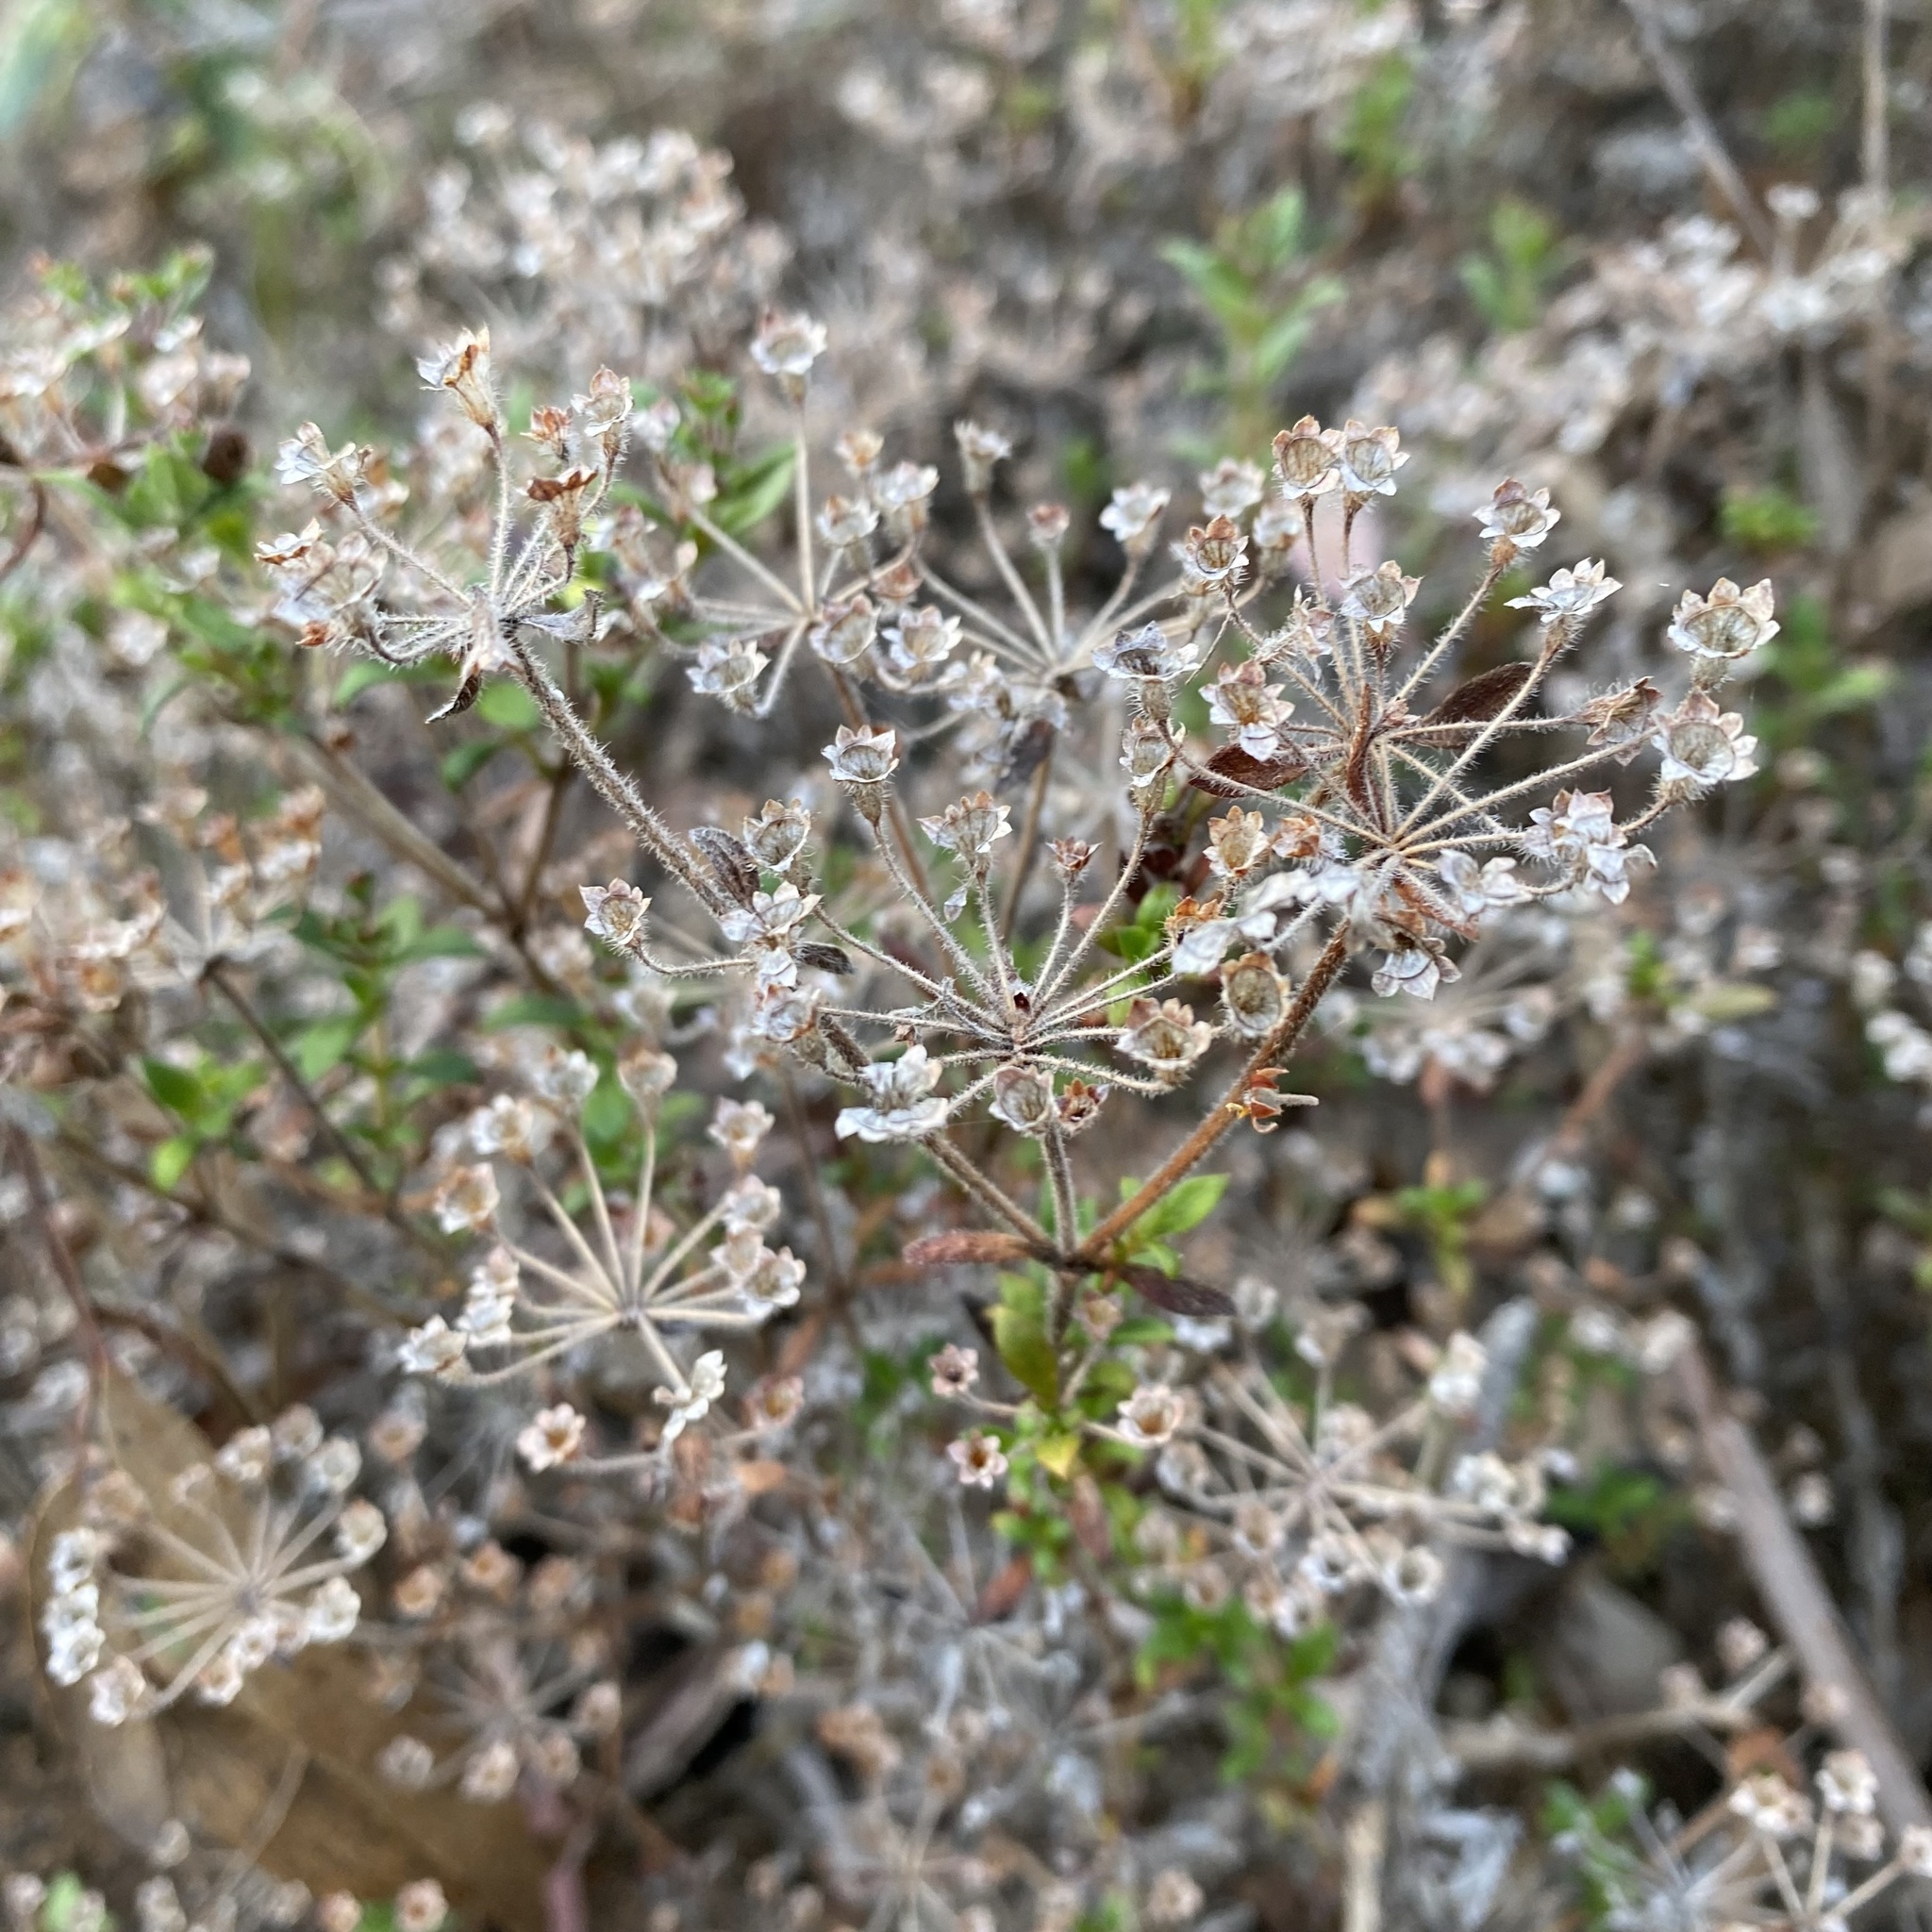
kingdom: Plantae
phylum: Tracheophyta
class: Magnoliopsida
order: Gentianales
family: Rubiaceae
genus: Pomax
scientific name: Pomax umbellata
